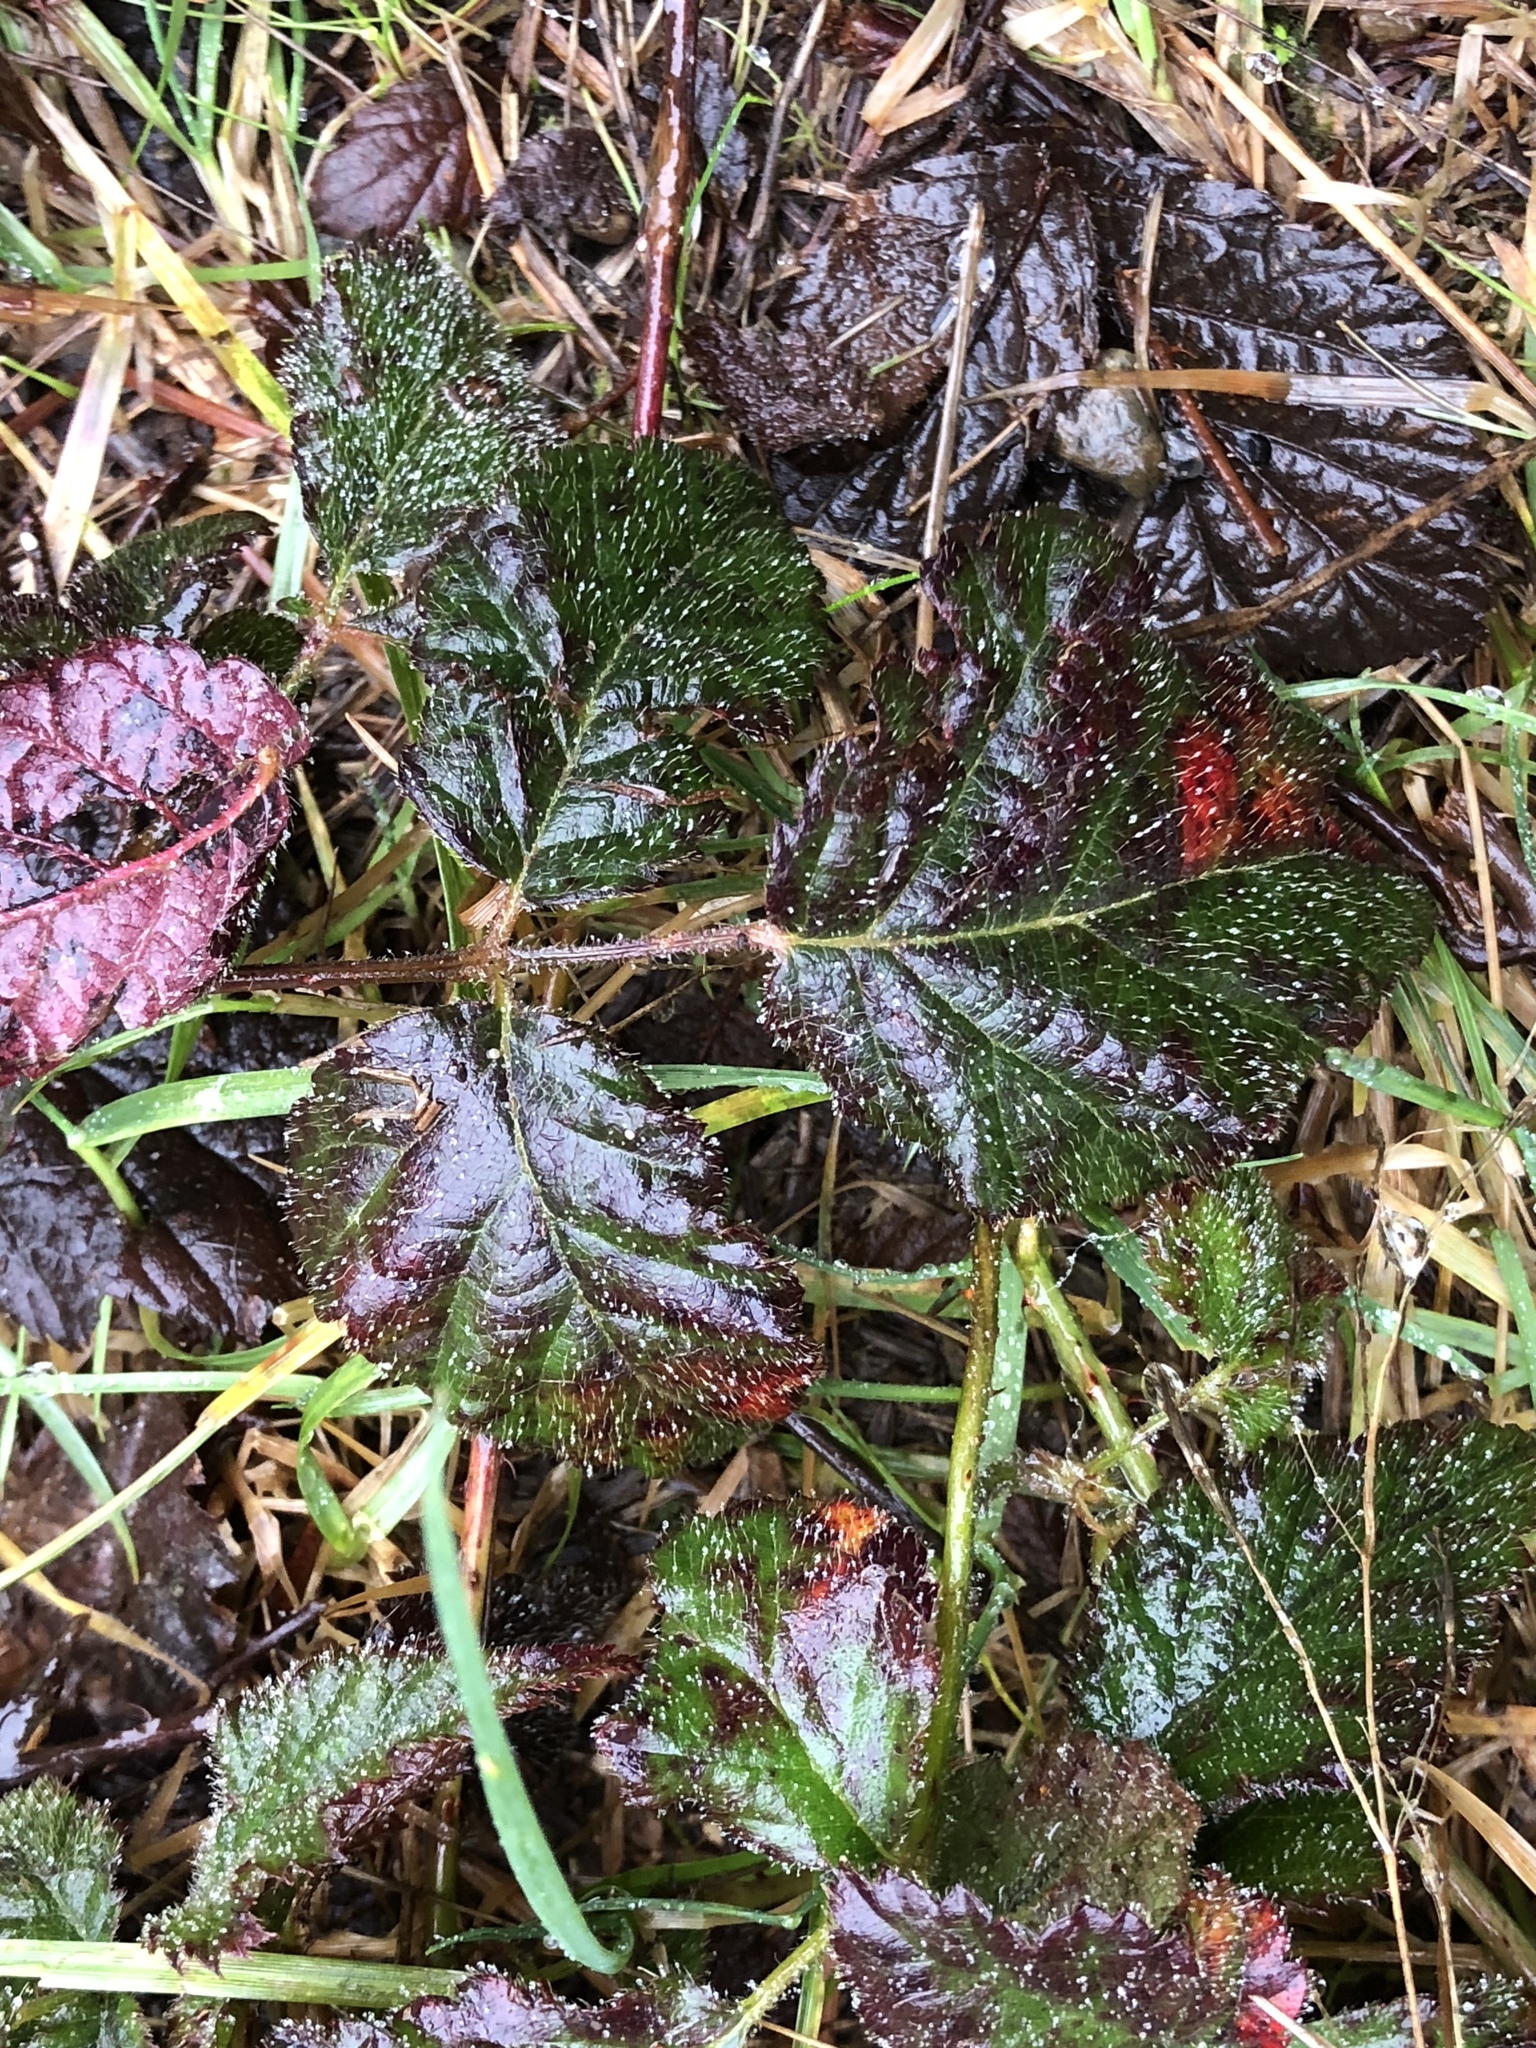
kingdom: Plantae
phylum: Tracheophyta
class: Magnoliopsida
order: Rosales
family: Rosaceae
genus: Rubus
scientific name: Rubus ursinus
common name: Pacific blackberry
